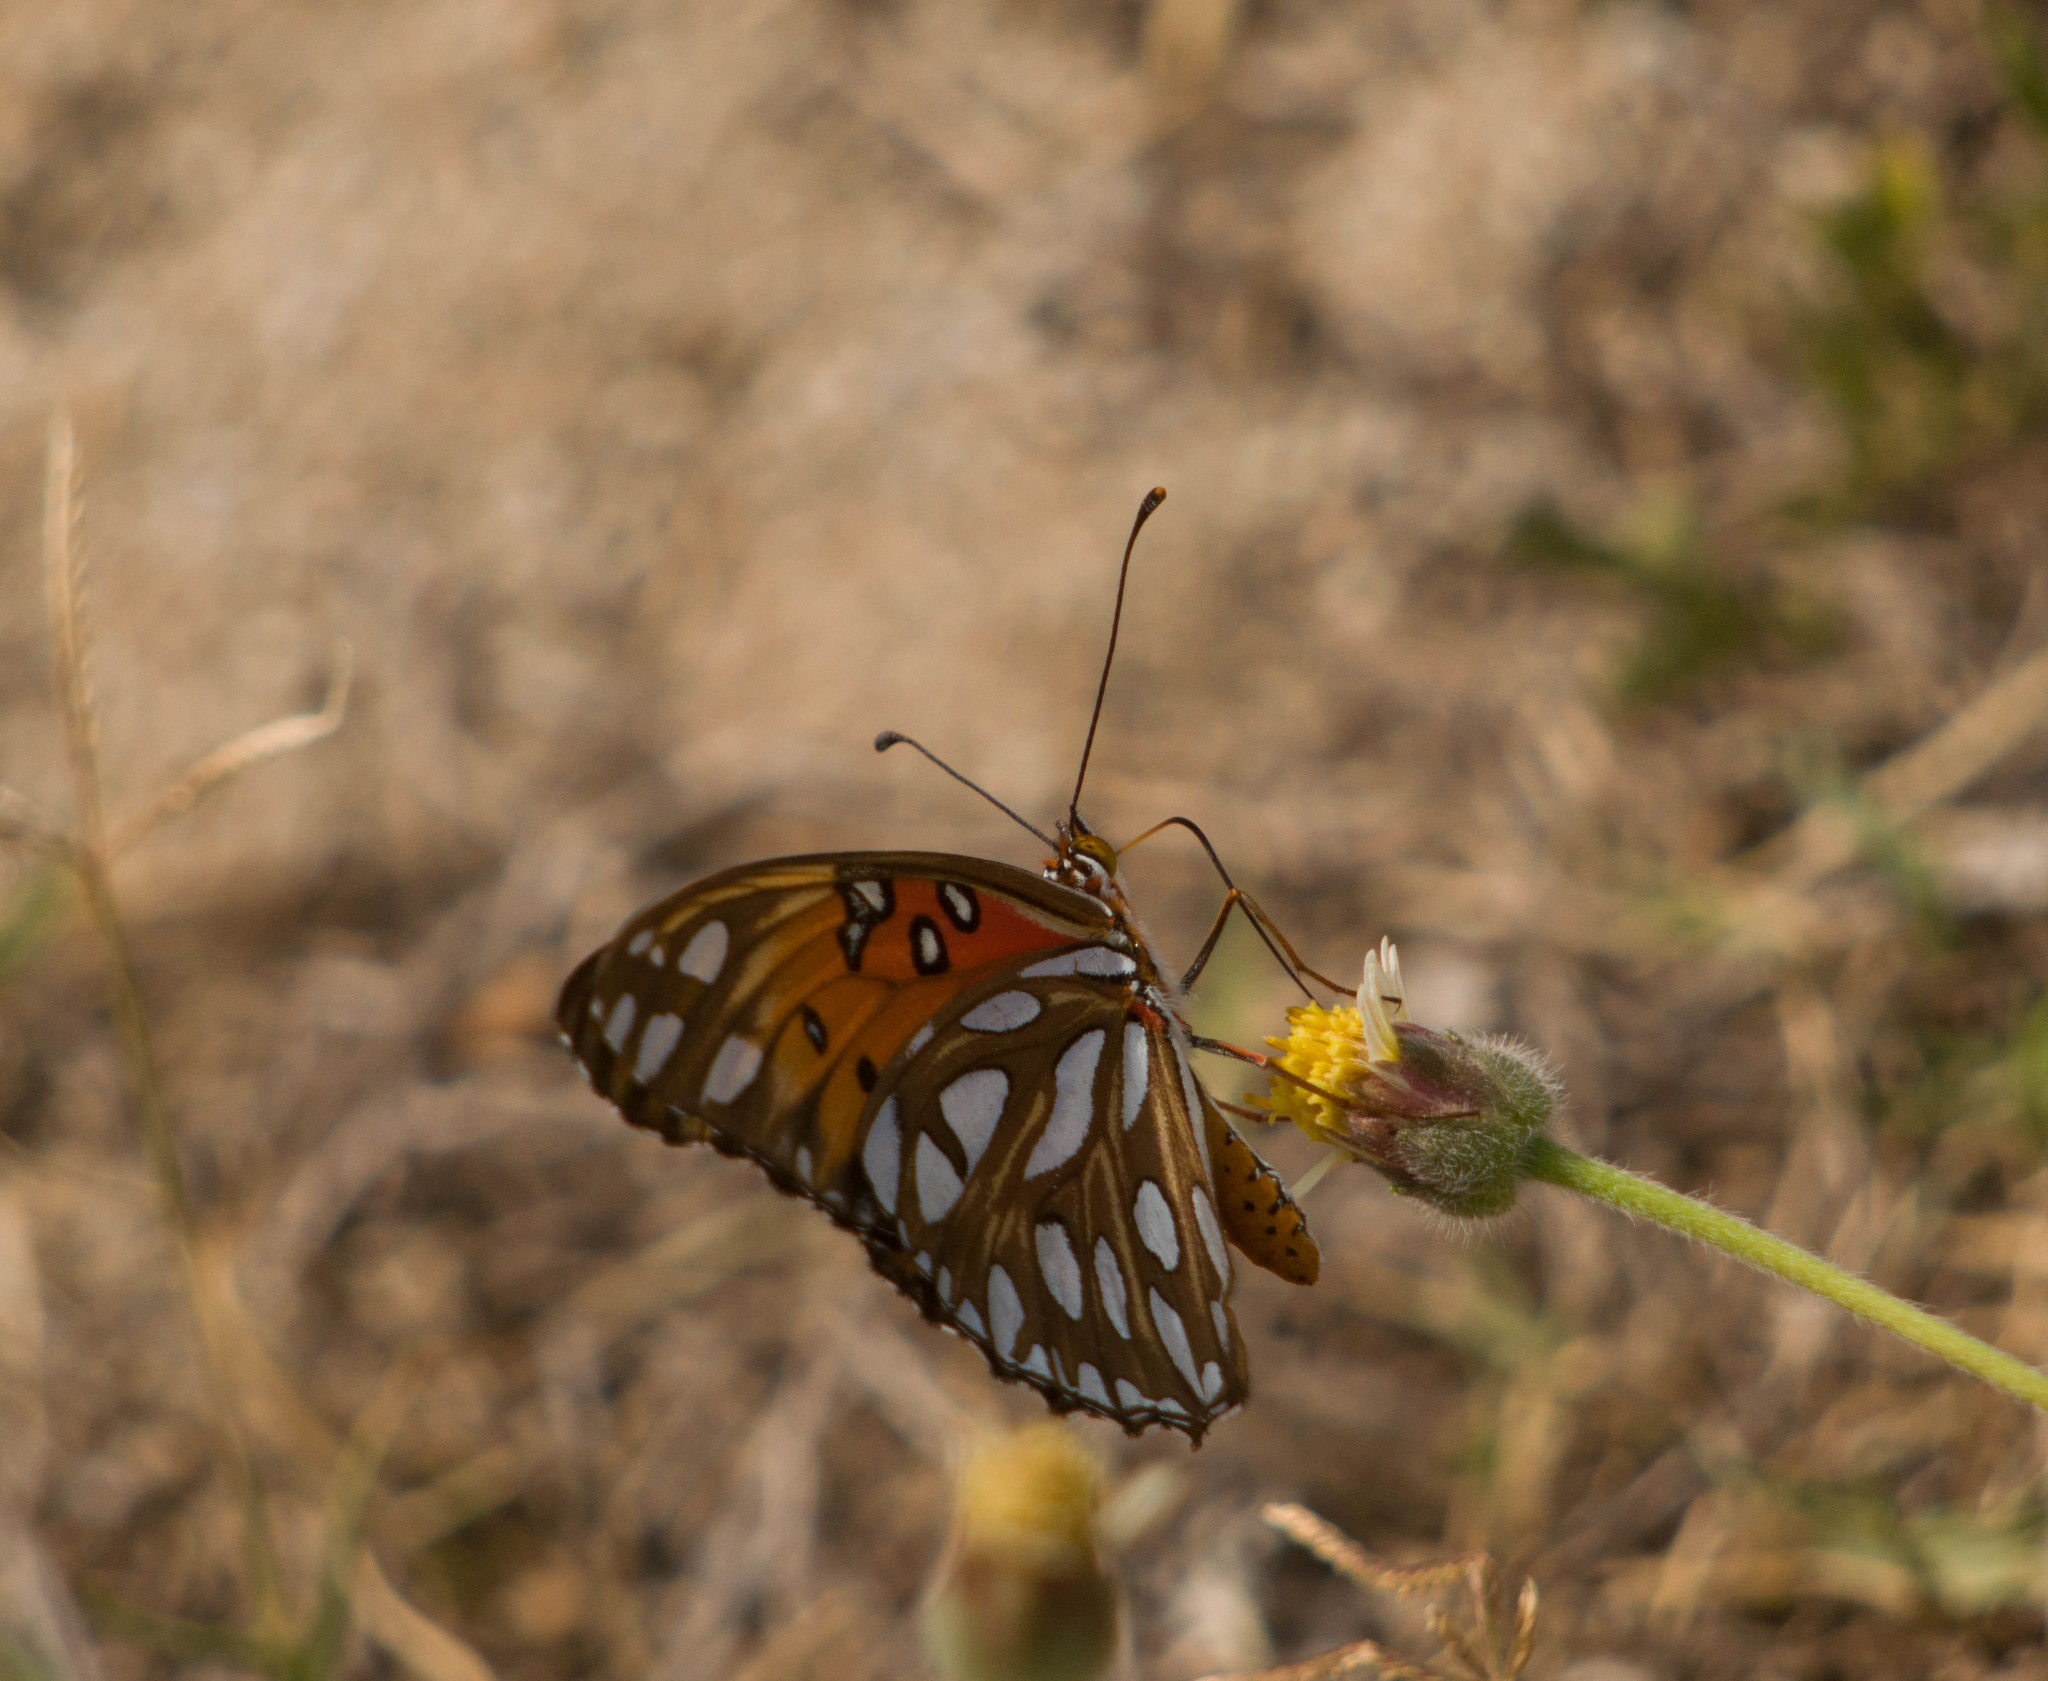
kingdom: Animalia
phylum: Arthropoda
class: Insecta
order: Lepidoptera
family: Nymphalidae
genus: Dione
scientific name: Dione vanillae
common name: Gulf fritillary
